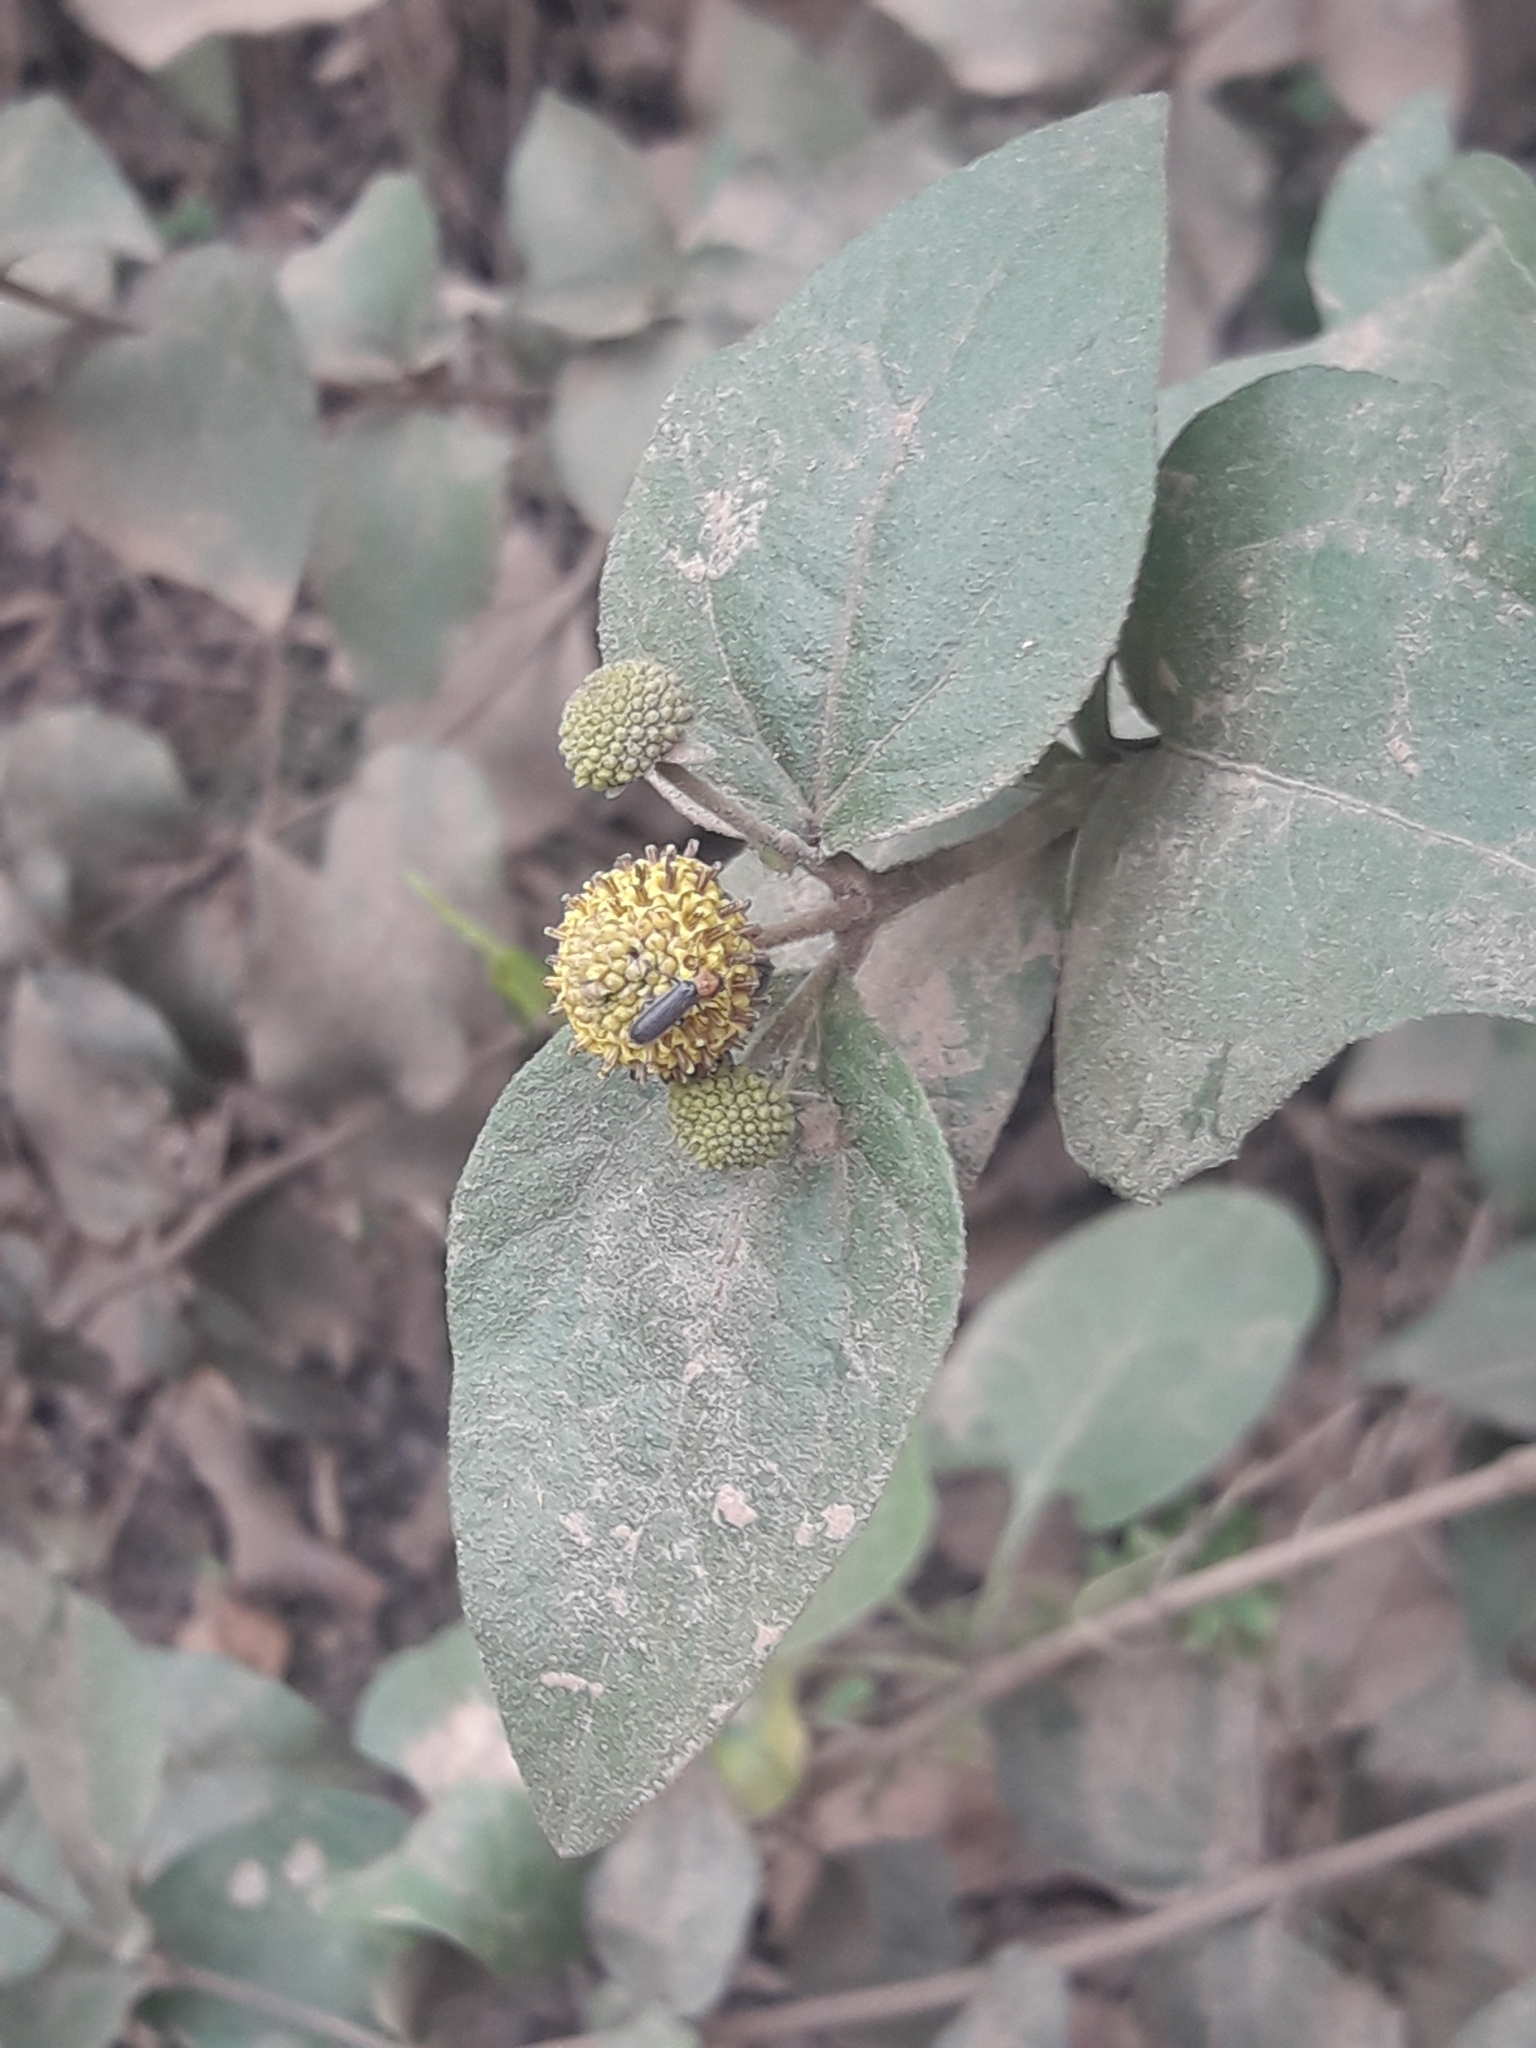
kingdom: Plantae
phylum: Tracheophyta
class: Magnoliopsida
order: Asterales
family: Asteraceae
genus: Podanthus
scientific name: Podanthus ovatifolius
